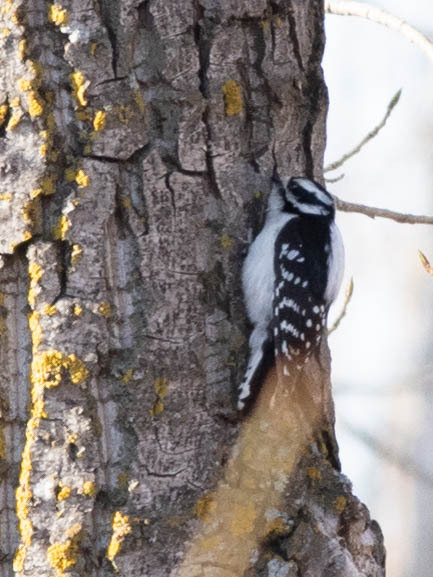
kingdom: Animalia
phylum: Chordata
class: Aves
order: Piciformes
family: Picidae
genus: Dryobates
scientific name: Dryobates pubescens
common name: Downy woodpecker
